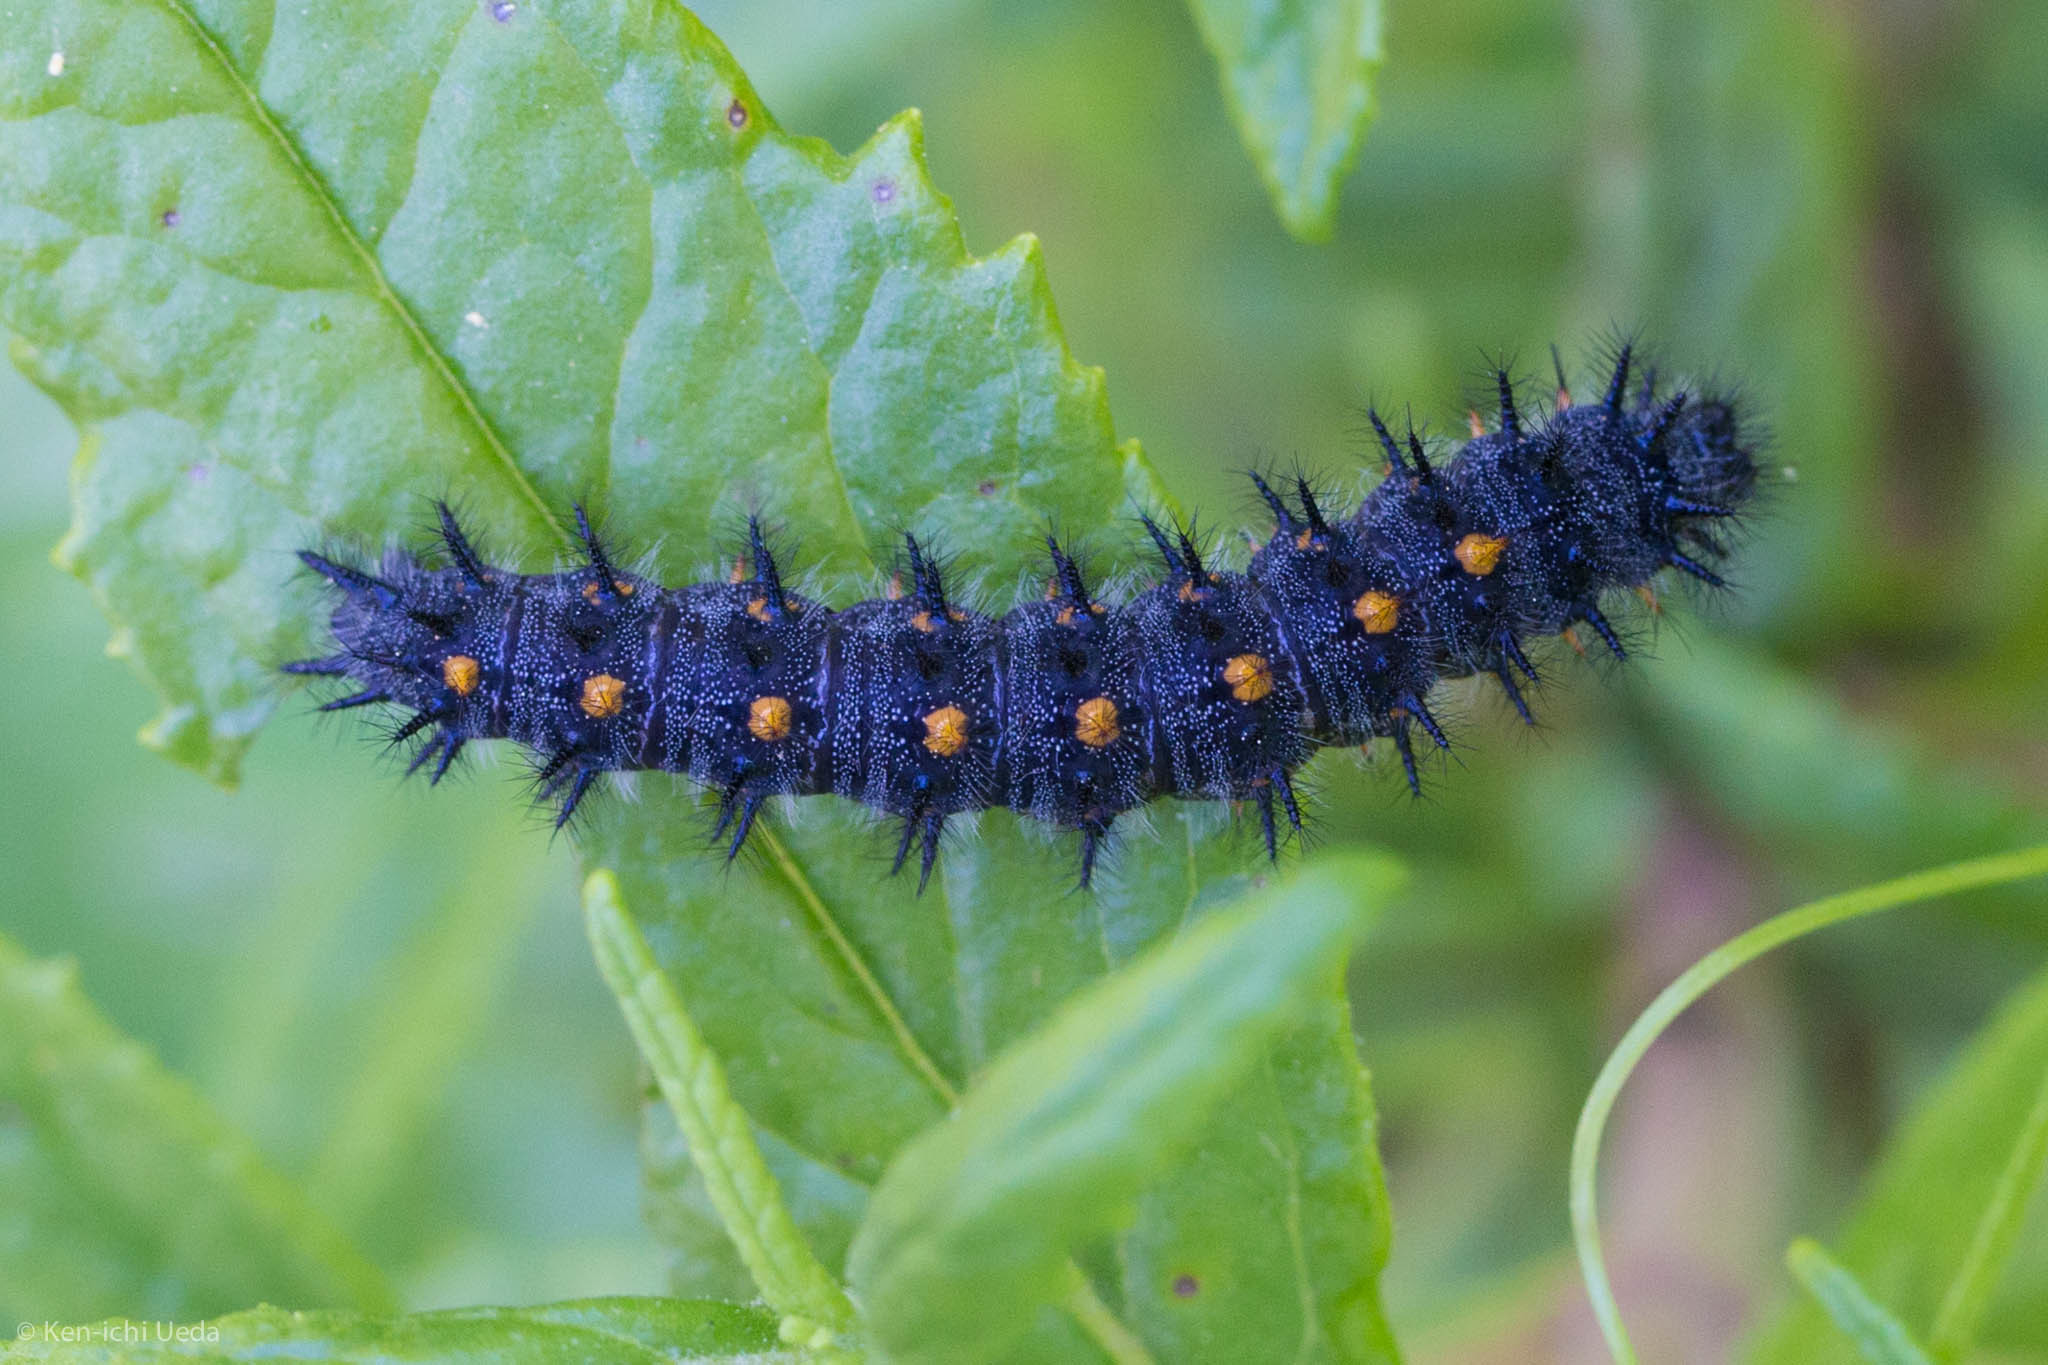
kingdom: Animalia
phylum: Arthropoda
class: Insecta
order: Lepidoptera
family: Nymphalidae
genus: Occidryas
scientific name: Occidryas chalcedona
